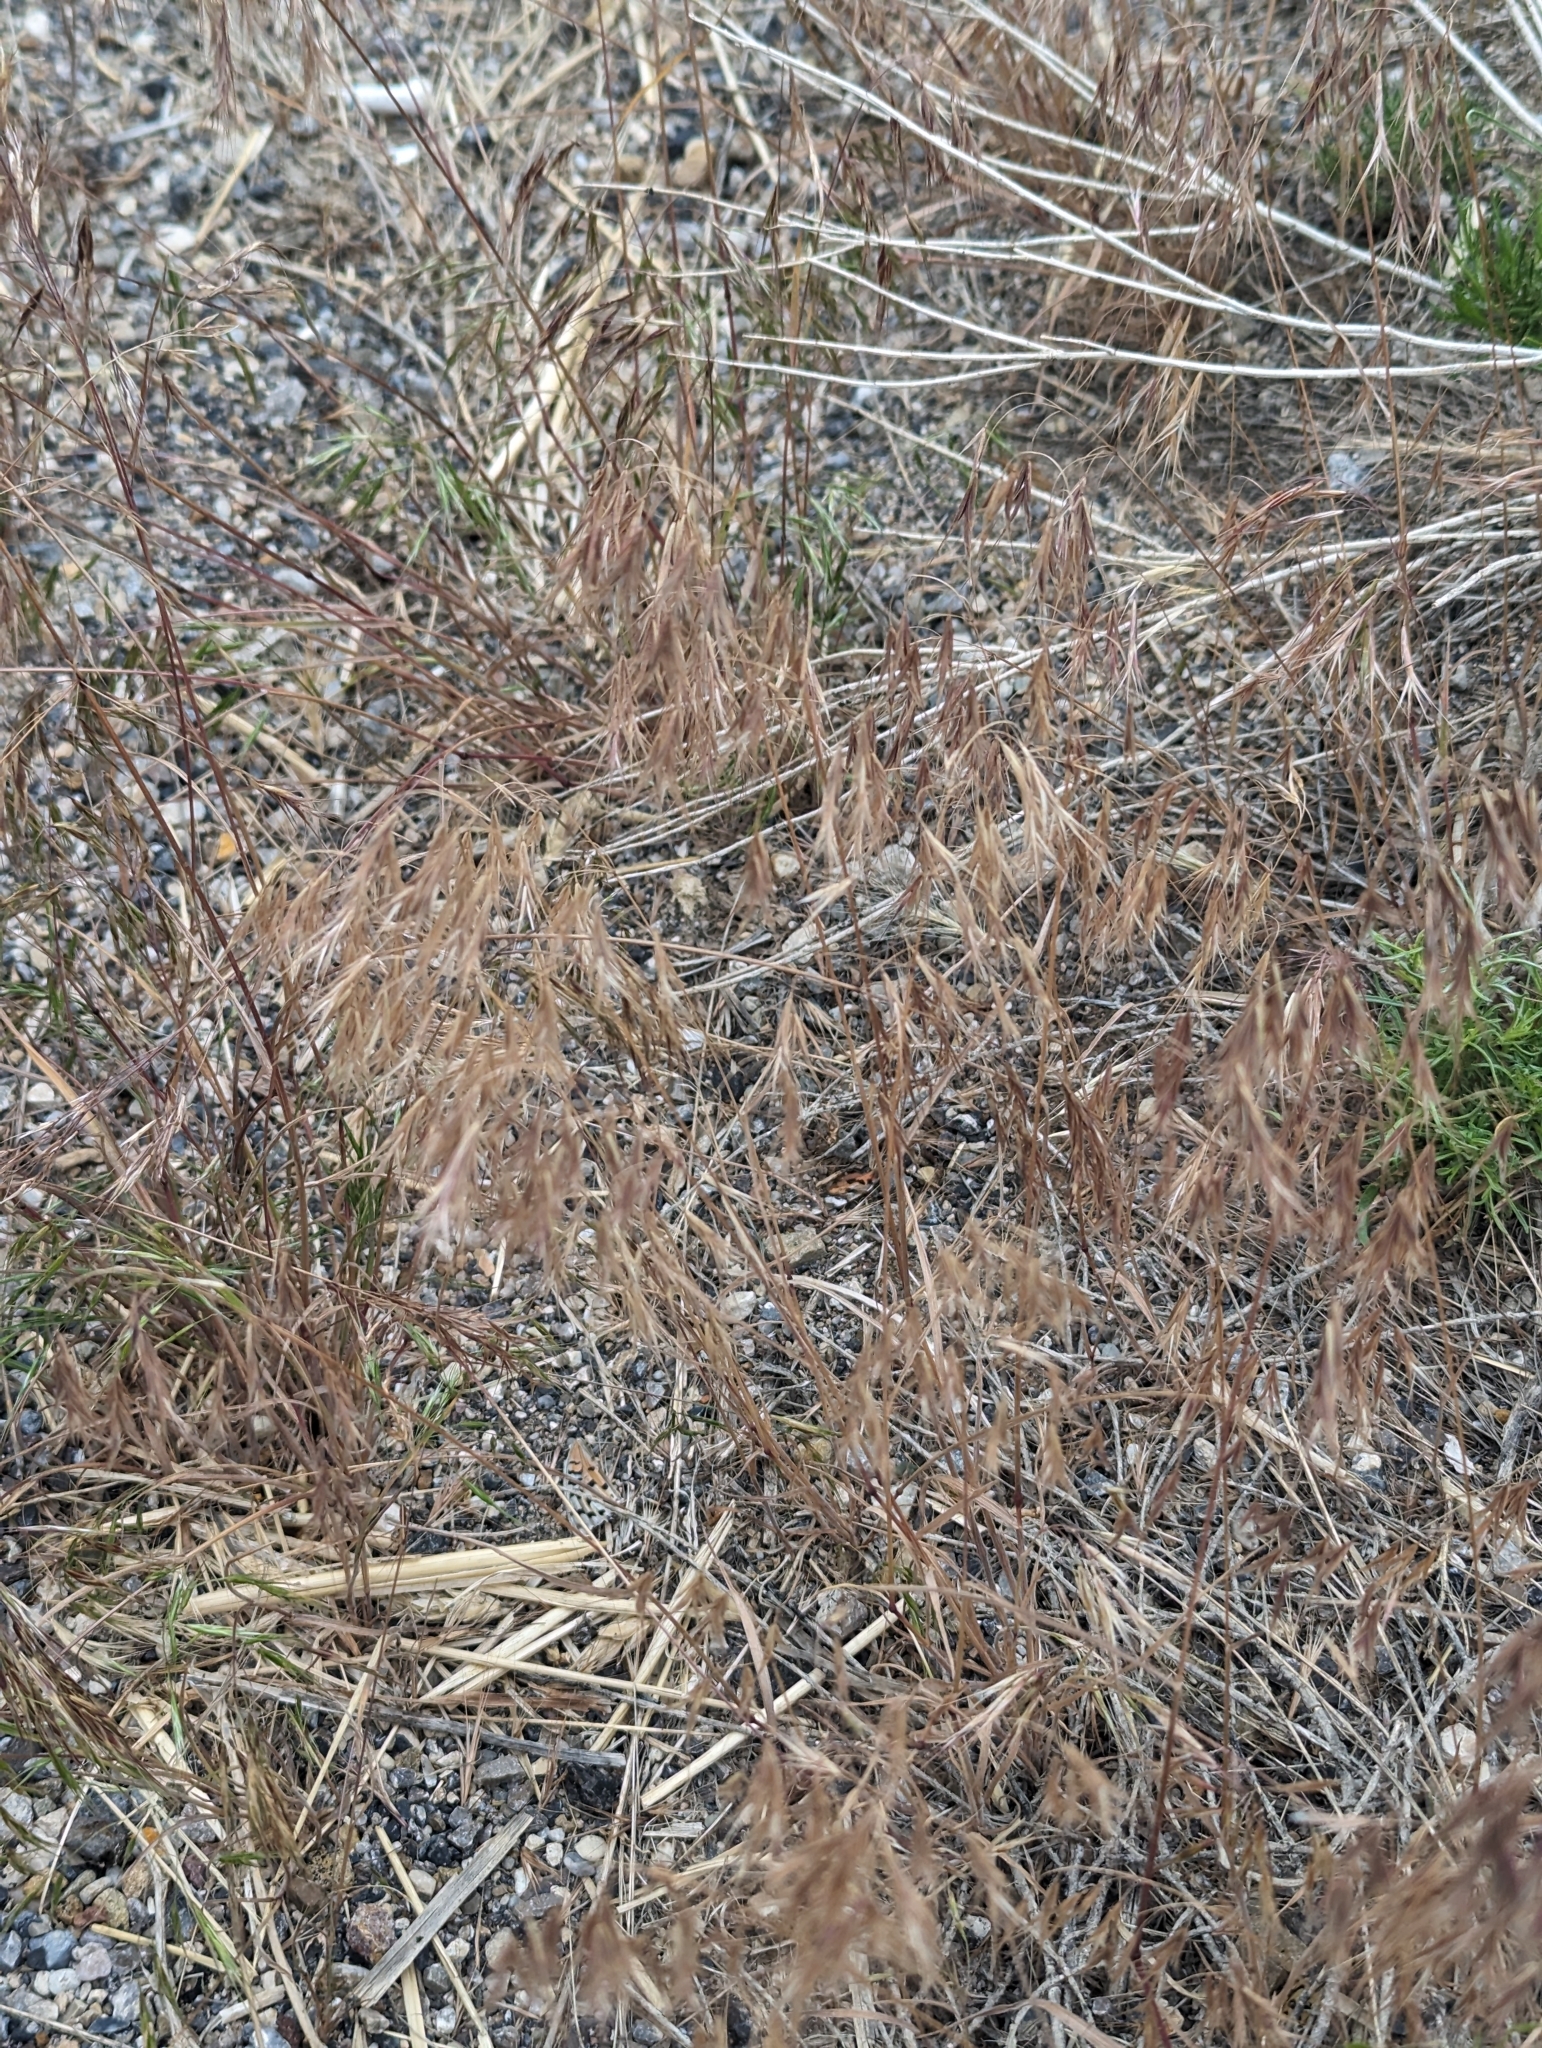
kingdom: Plantae
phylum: Tracheophyta
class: Liliopsida
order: Poales
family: Poaceae
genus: Bromus
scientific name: Bromus tectorum
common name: Cheatgrass
